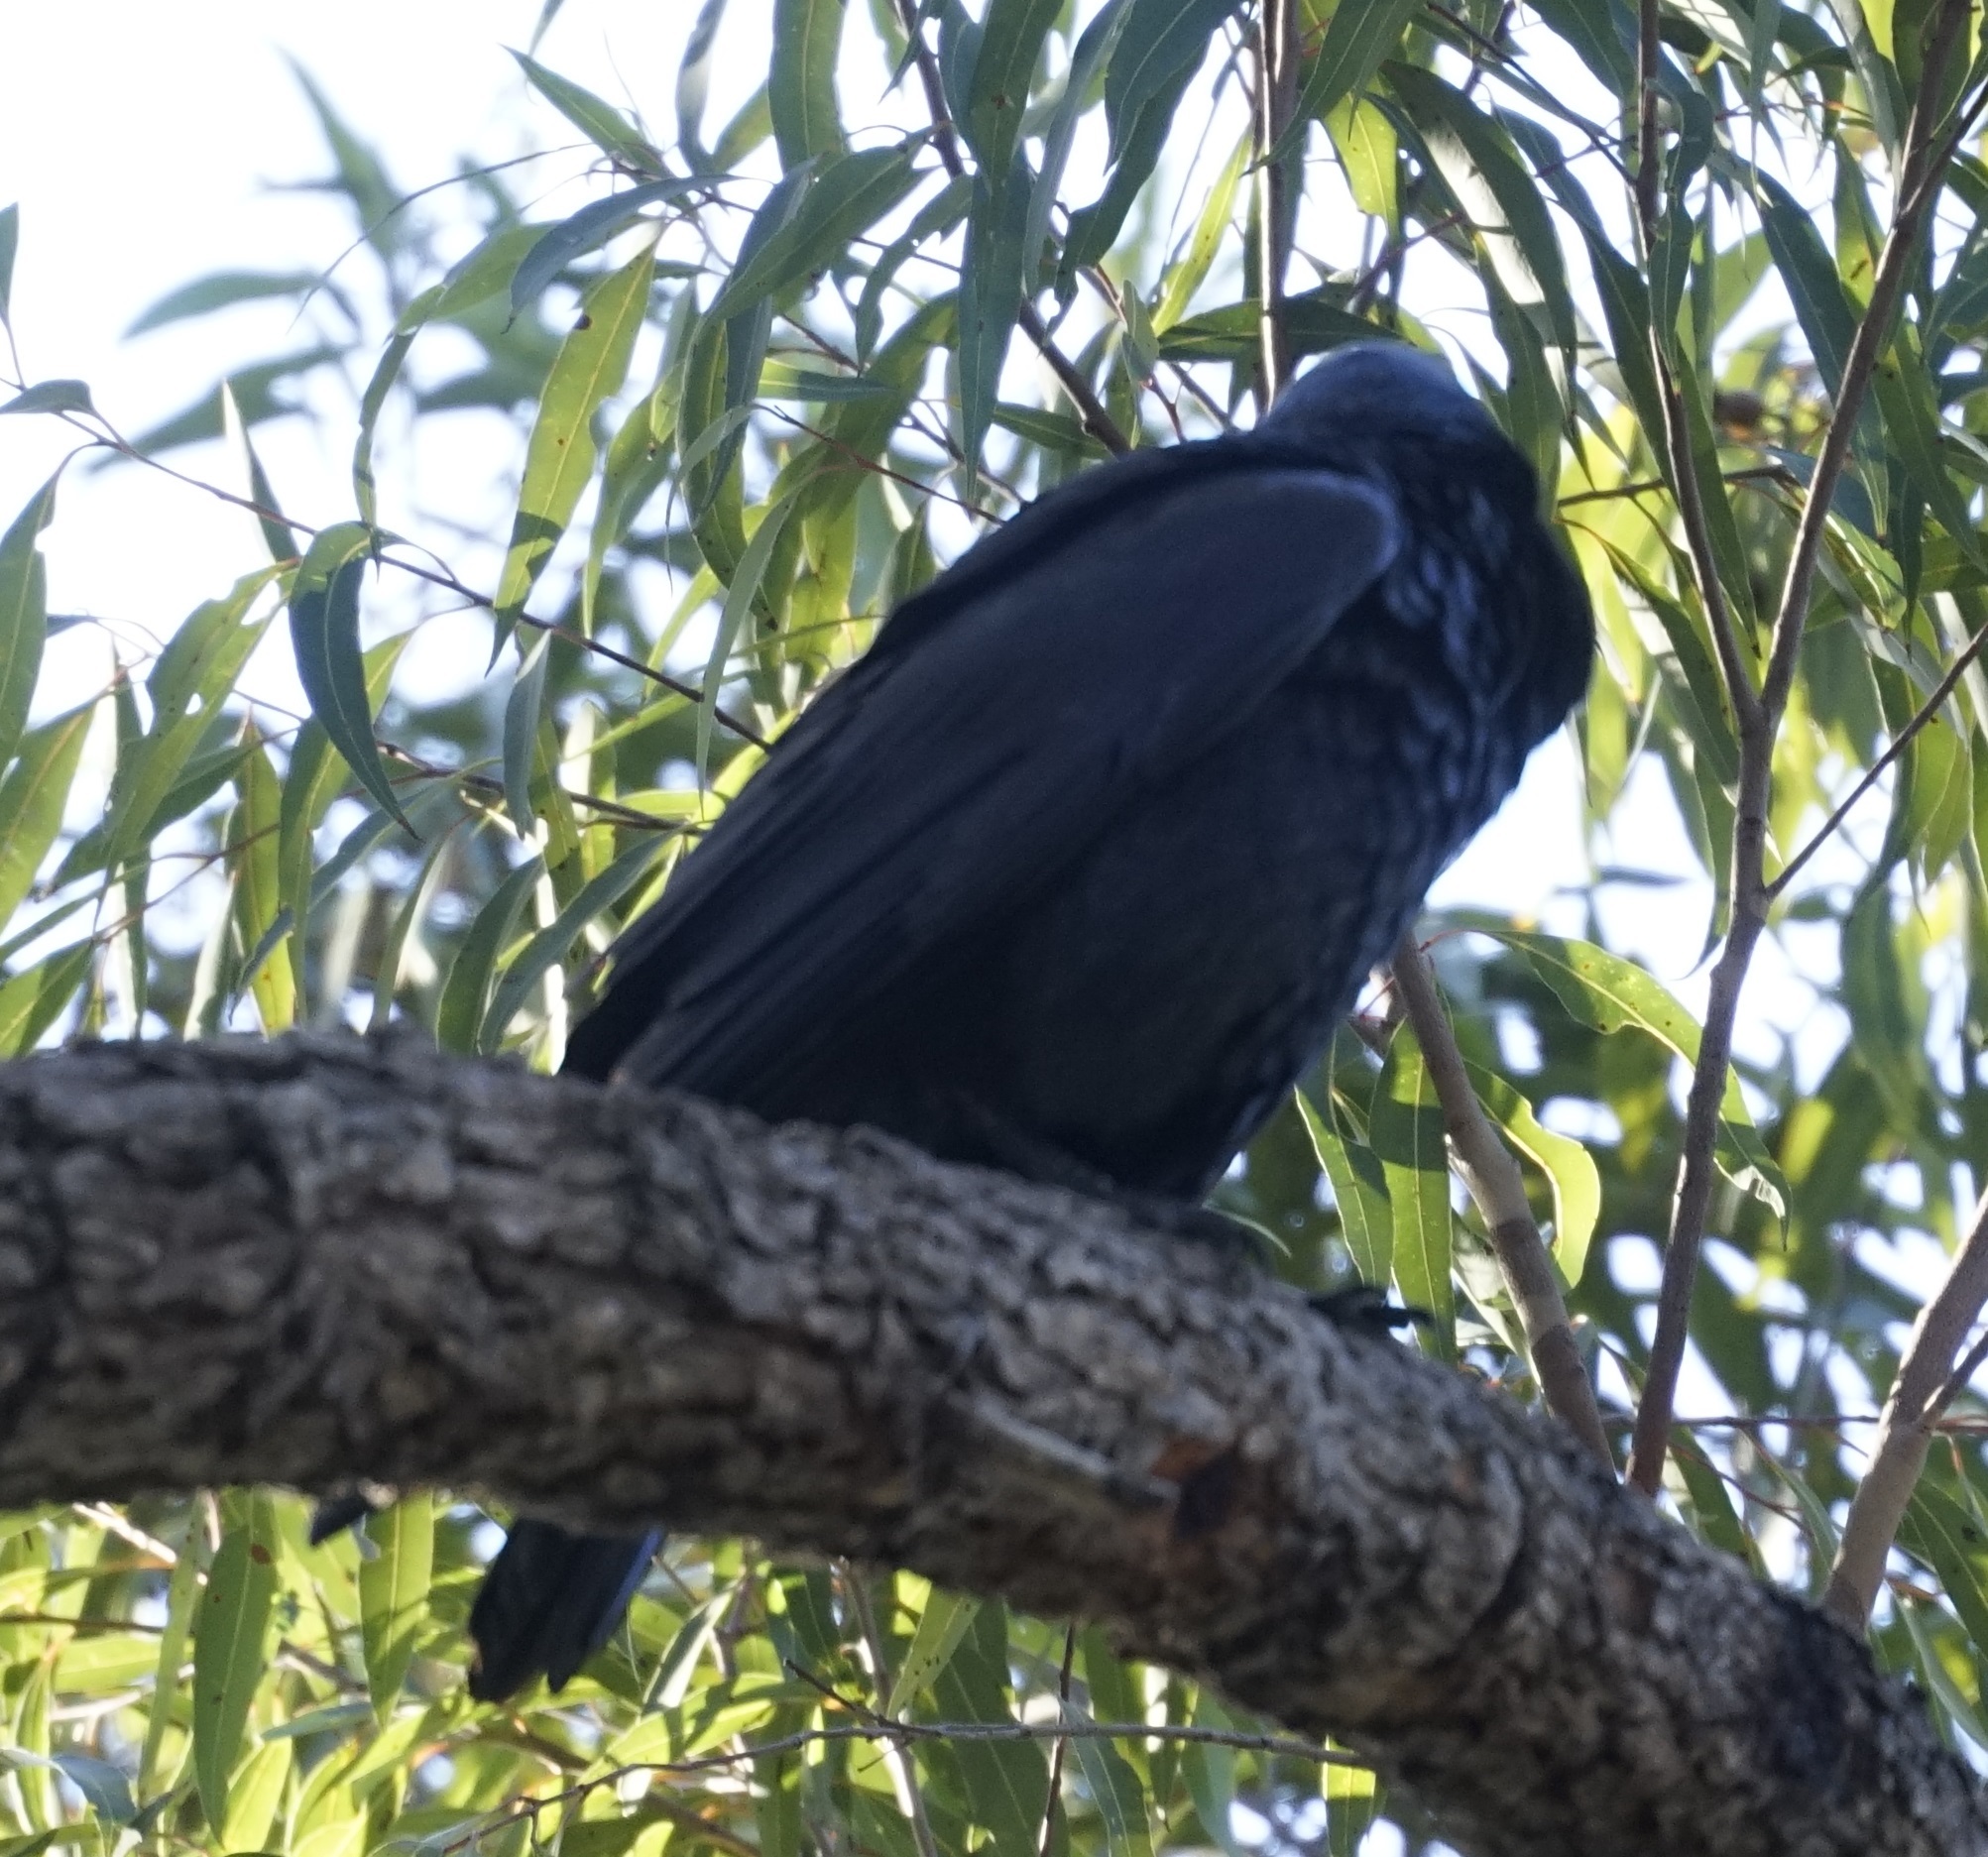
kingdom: Animalia
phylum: Chordata
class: Aves
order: Passeriformes
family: Corvidae
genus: Corvus
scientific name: Corvus coronoides
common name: Australian raven
